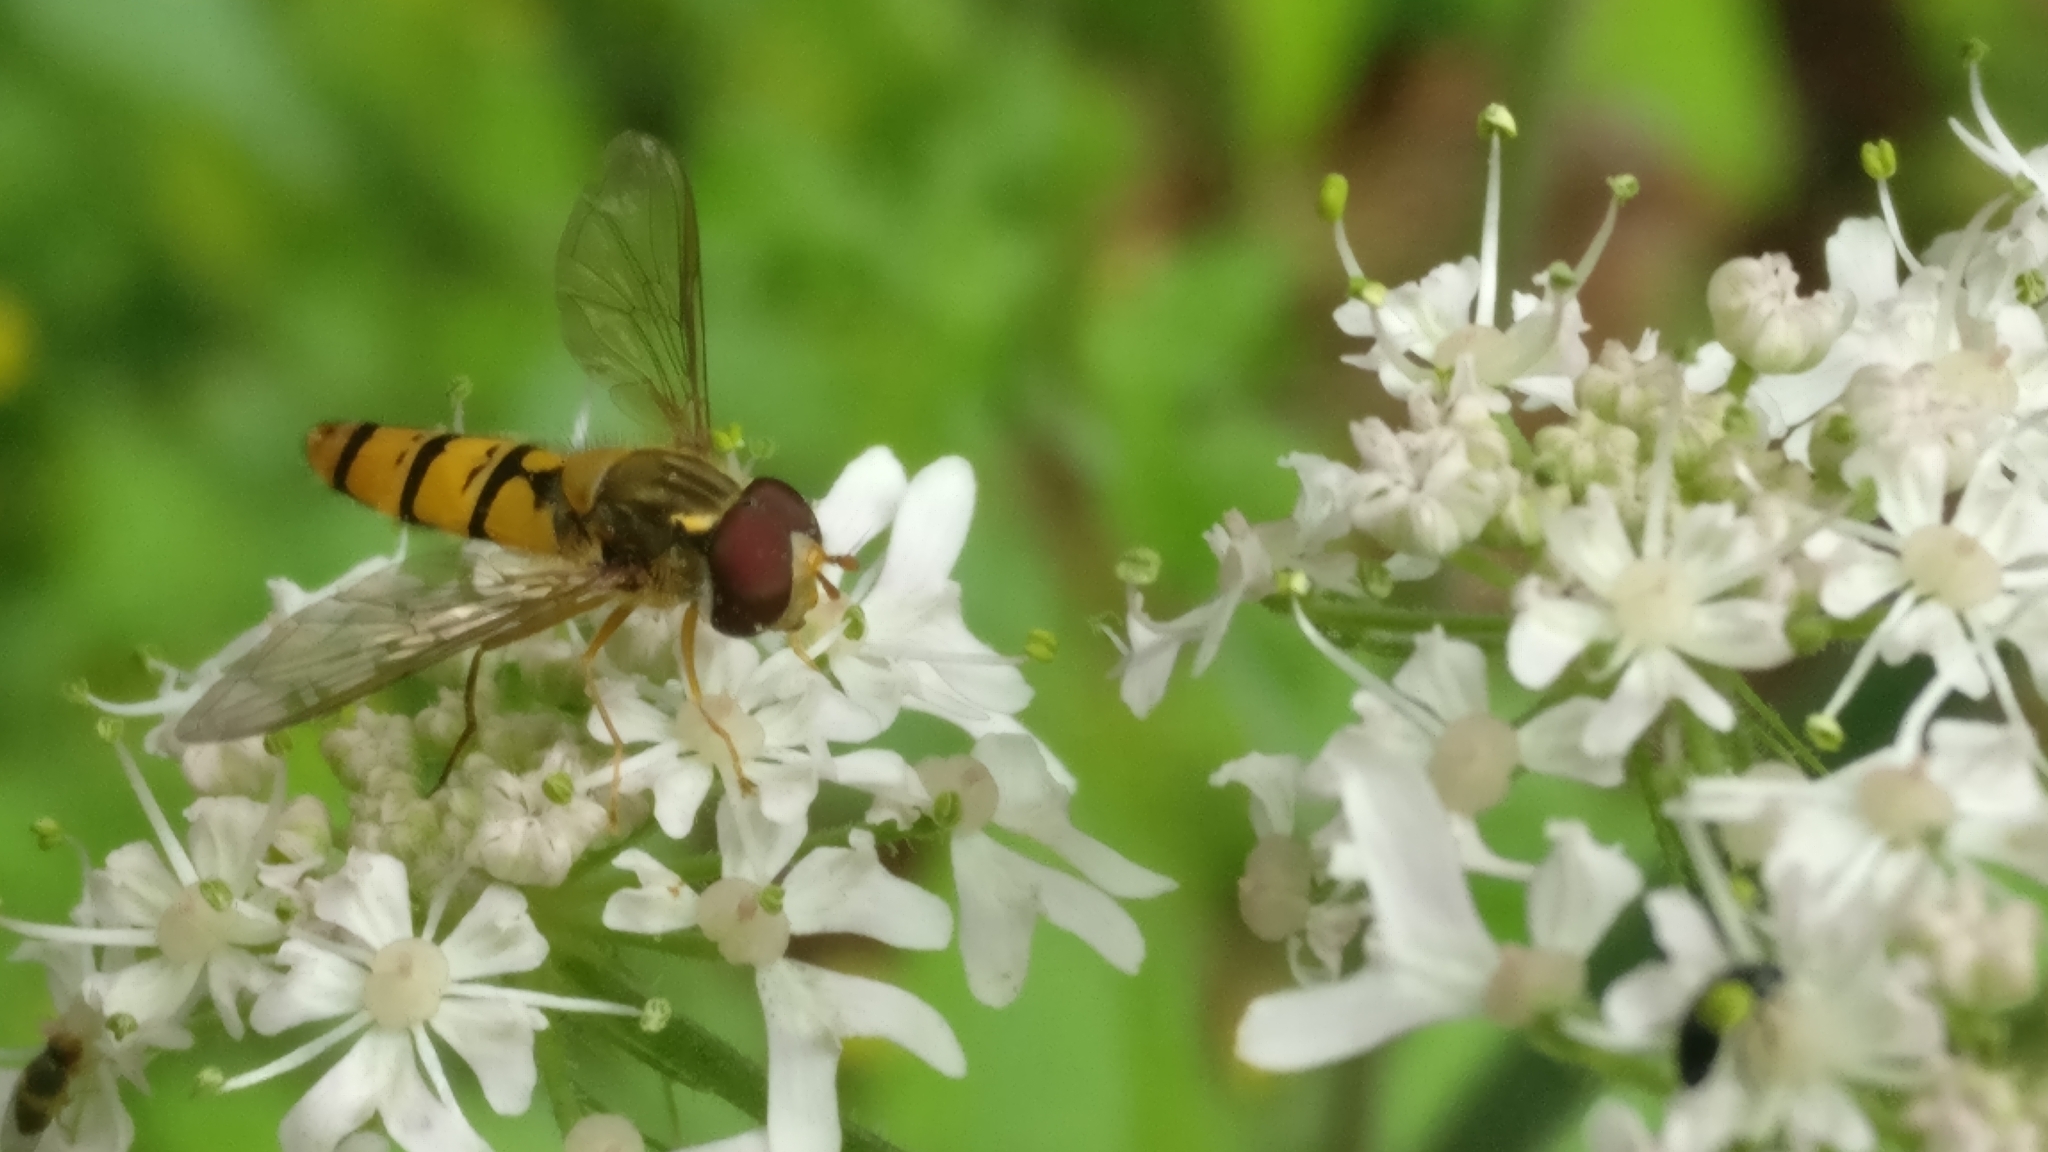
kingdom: Animalia
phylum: Arthropoda
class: Insecta
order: Diptera
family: Syrphidae
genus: Episyrphus
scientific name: Episyrphus balteatus
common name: Marmalade hoverfly
